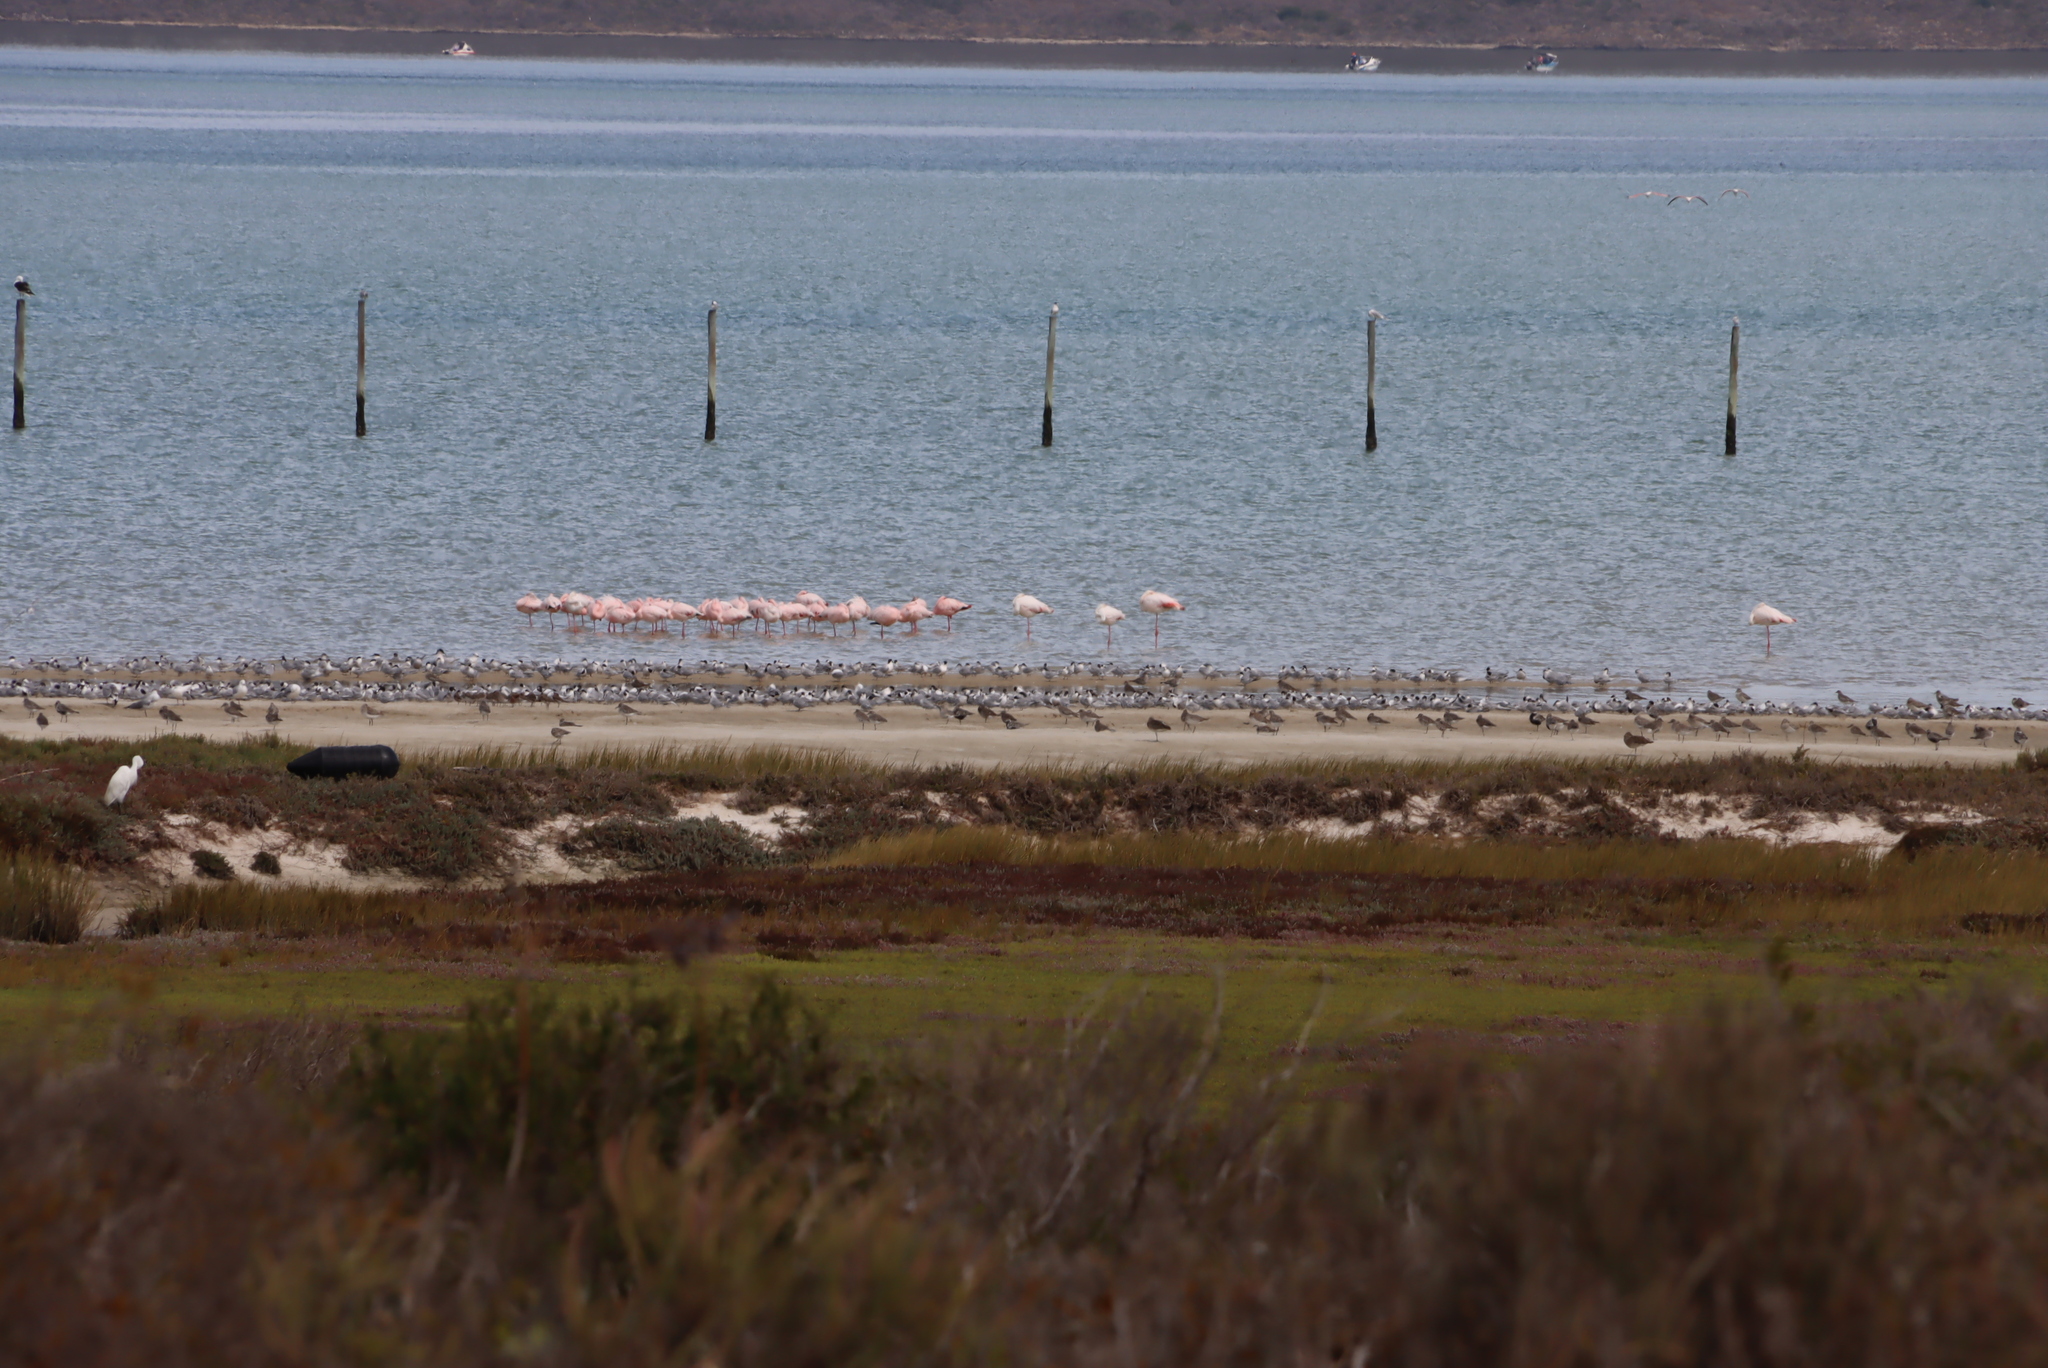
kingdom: Animalia
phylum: Chordata
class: Aves
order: Phoenicopteriformes
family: Phoenicopteridae
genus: Phoeniconaias
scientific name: Phoeniconaias minor
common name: Lesser flamingo
